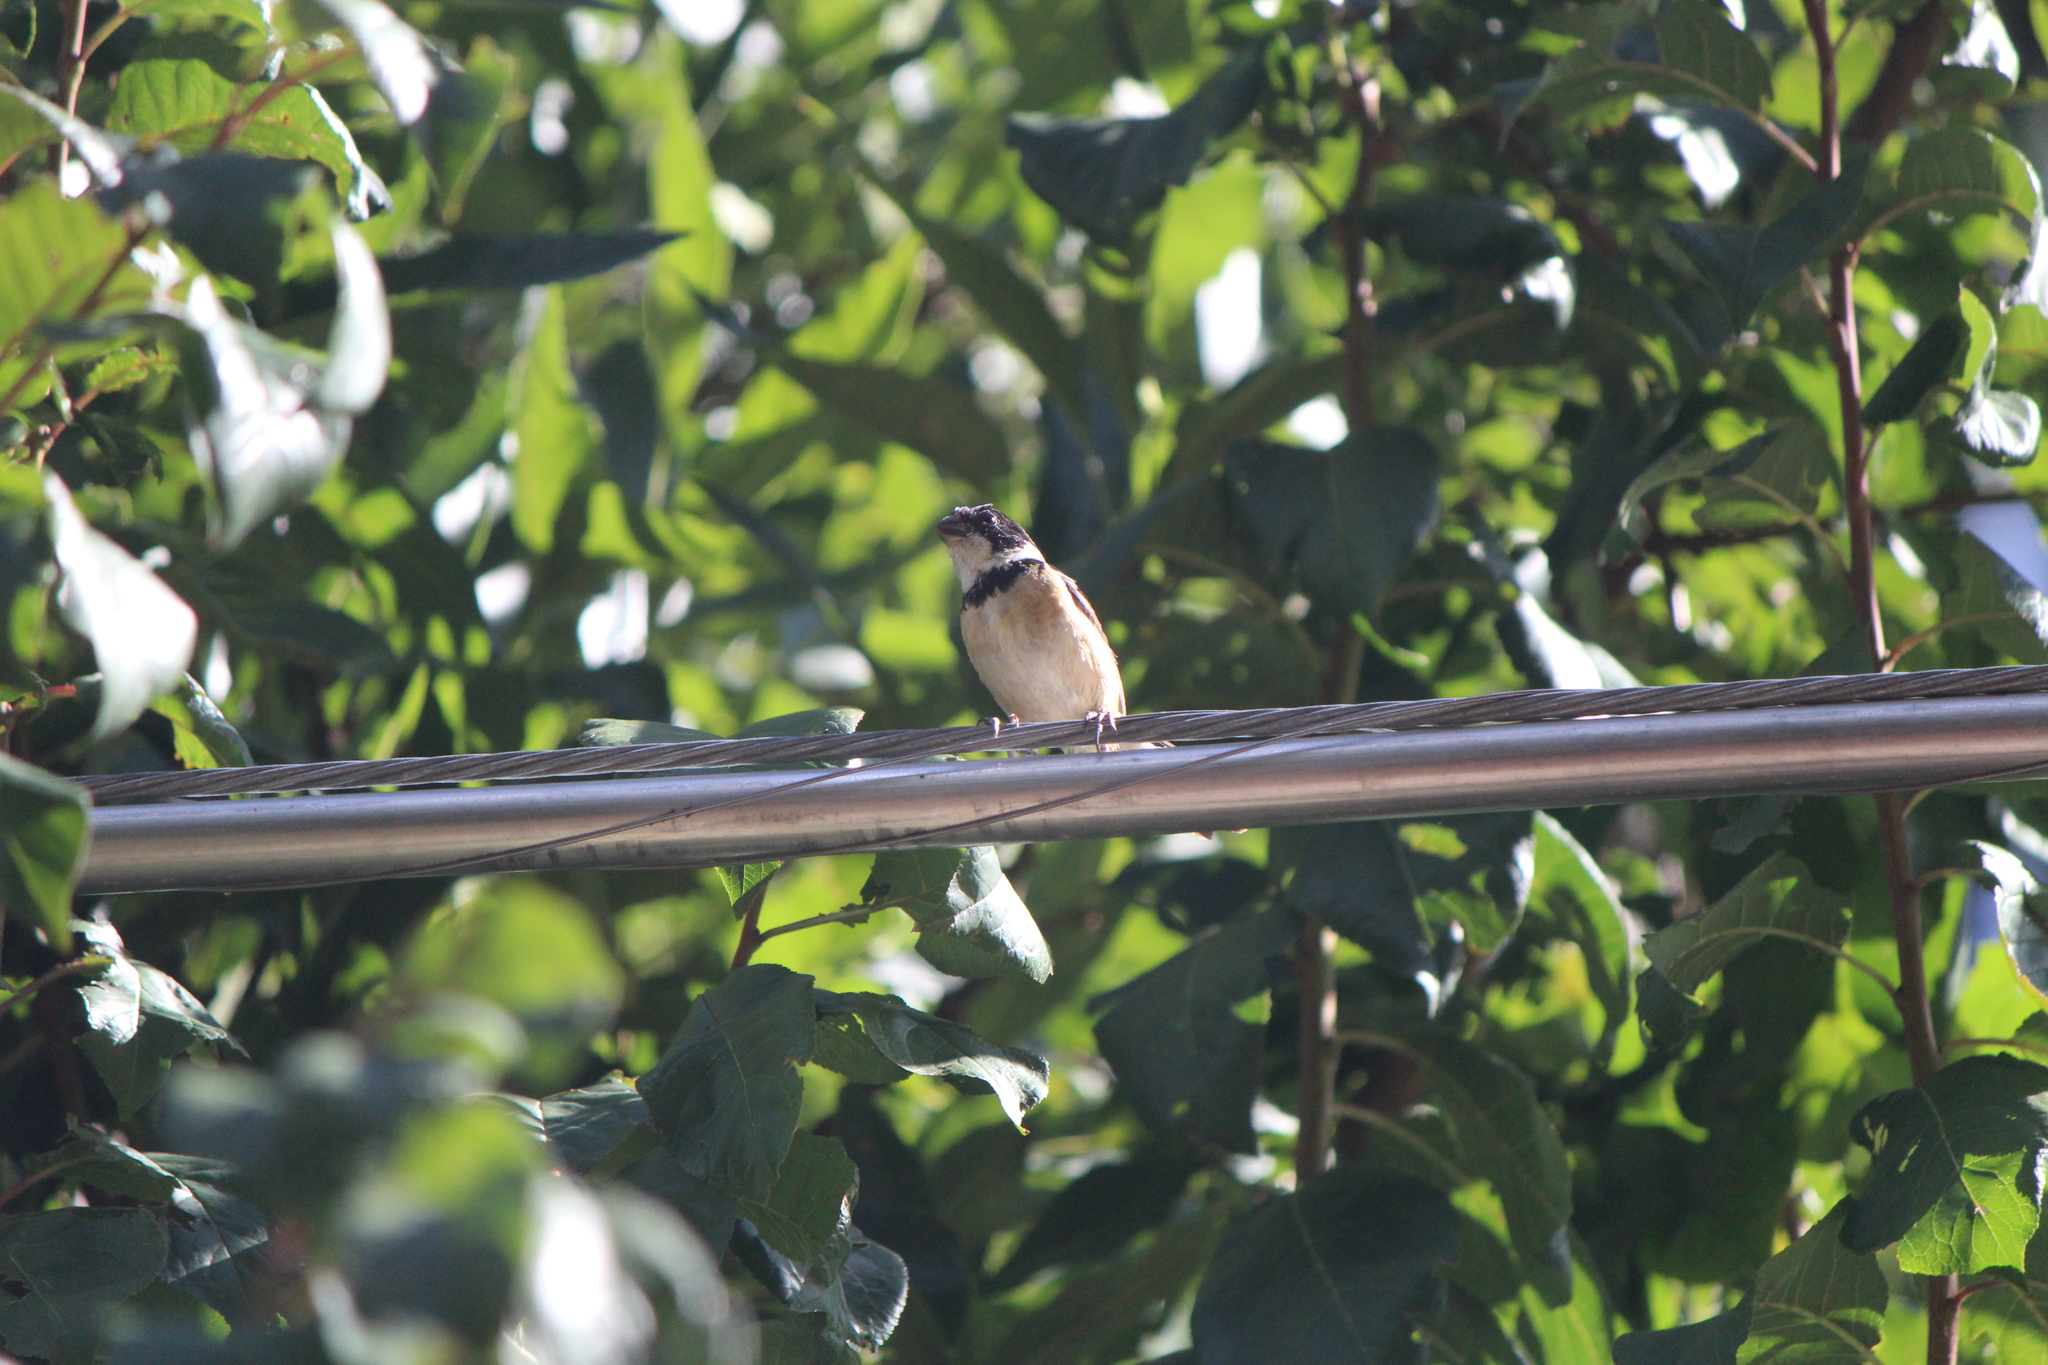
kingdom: Animalia
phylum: Chordata
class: Aves
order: Passeriformes
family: Thraupidae
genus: Sporophila
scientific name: Sporophila torqueola
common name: White-collared seedeater
